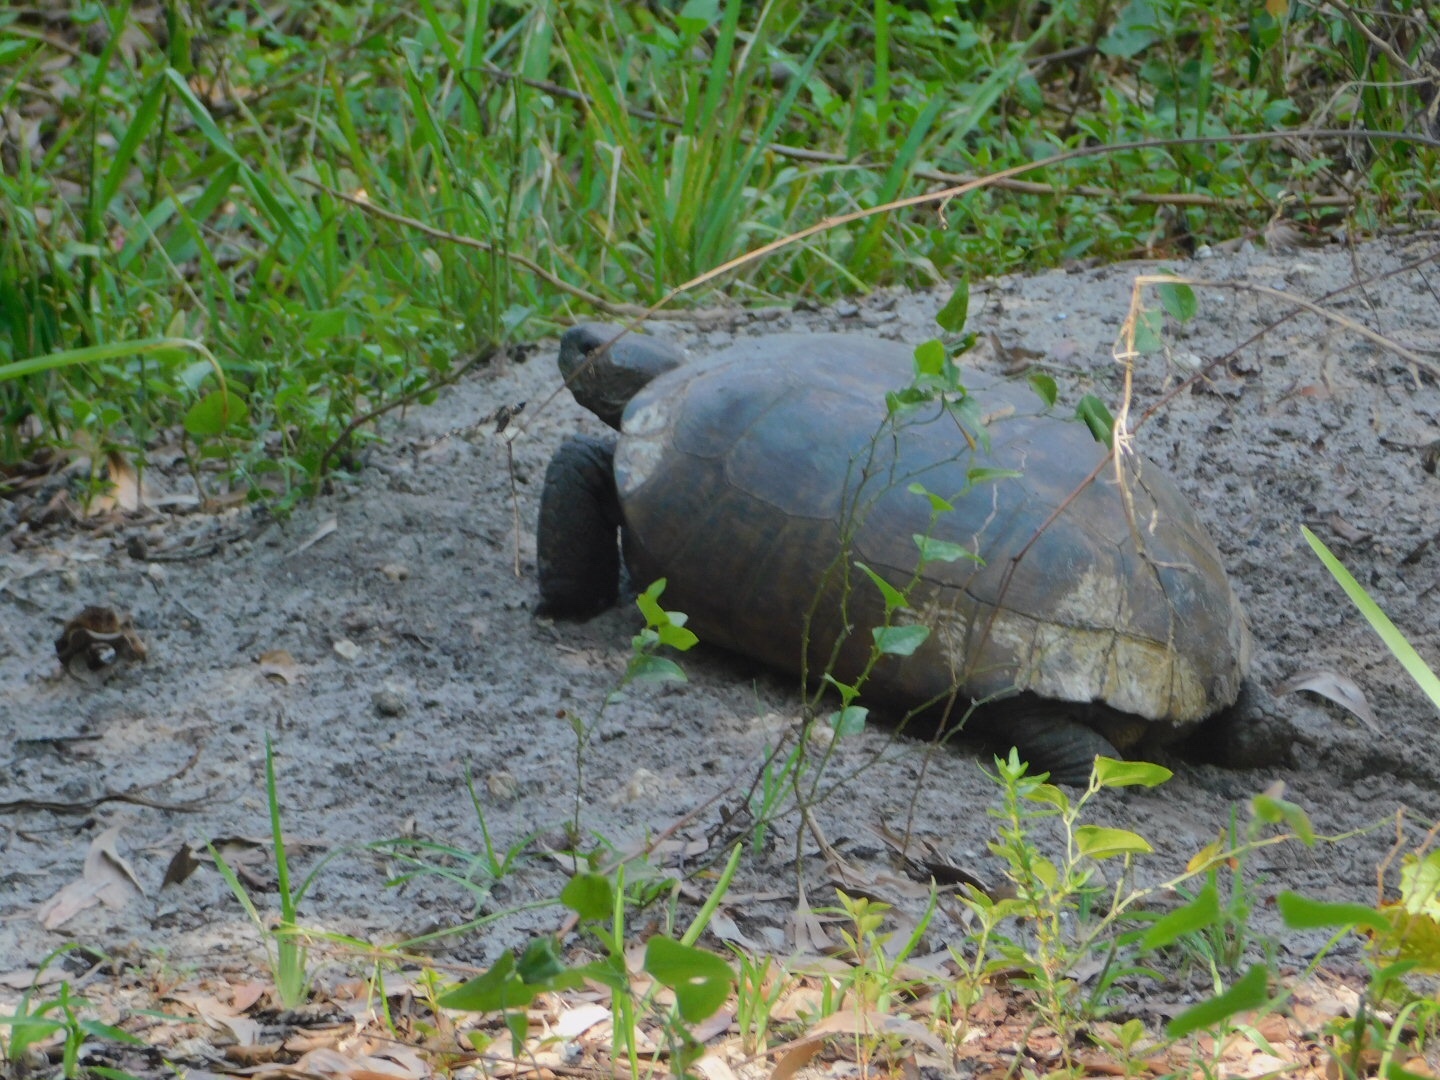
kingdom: Animalia
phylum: Chordata
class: Testudines
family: Testudinidae
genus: Gopherus
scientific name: Gopherus polyphemus
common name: Florida gopher tortoise
